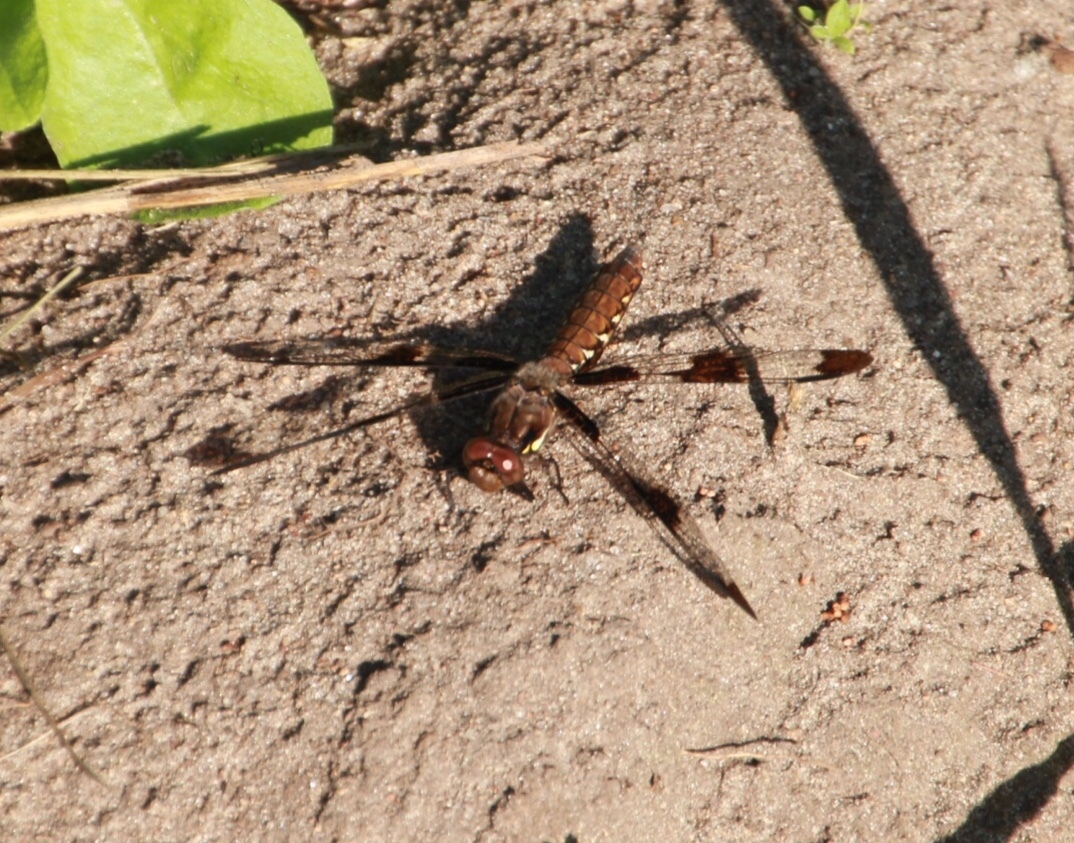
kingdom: Animalia
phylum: Arthropoda
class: Insecta
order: Odonata
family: Libellulidae
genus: Plathemis
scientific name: Plathemis lydia
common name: Common whitetail
